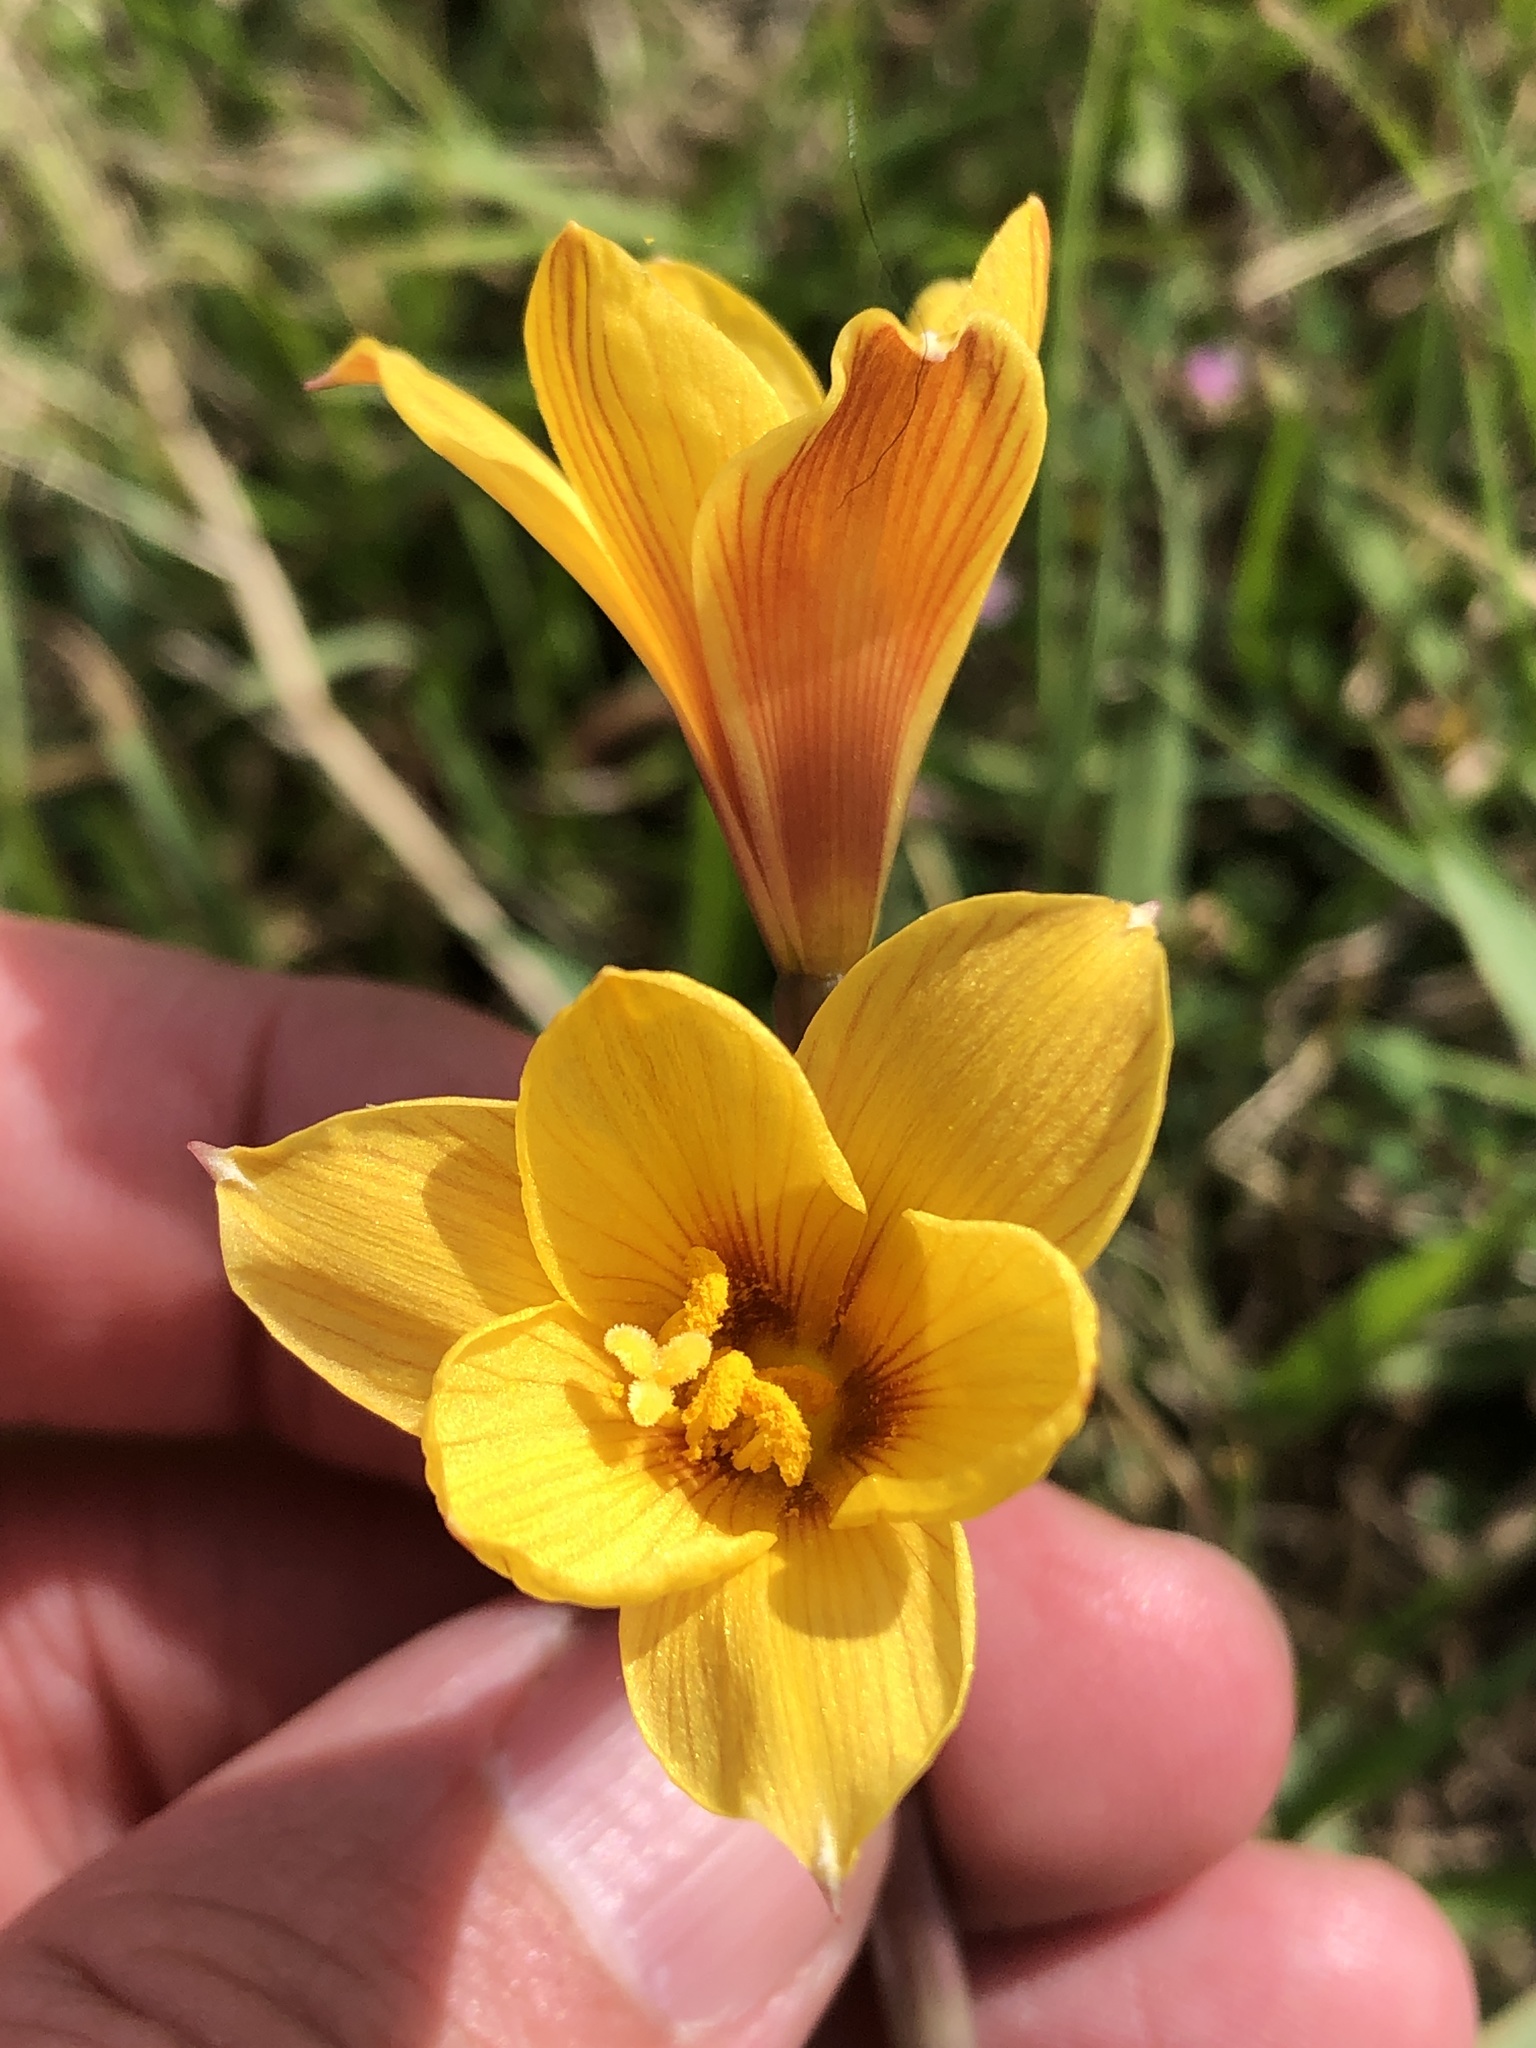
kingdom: Plantae
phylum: Tracheophyta
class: Liliopsida
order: Asparagales
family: Amaryllidaceae
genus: Zephyranthes
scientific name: Zephyranthes tubispatha
